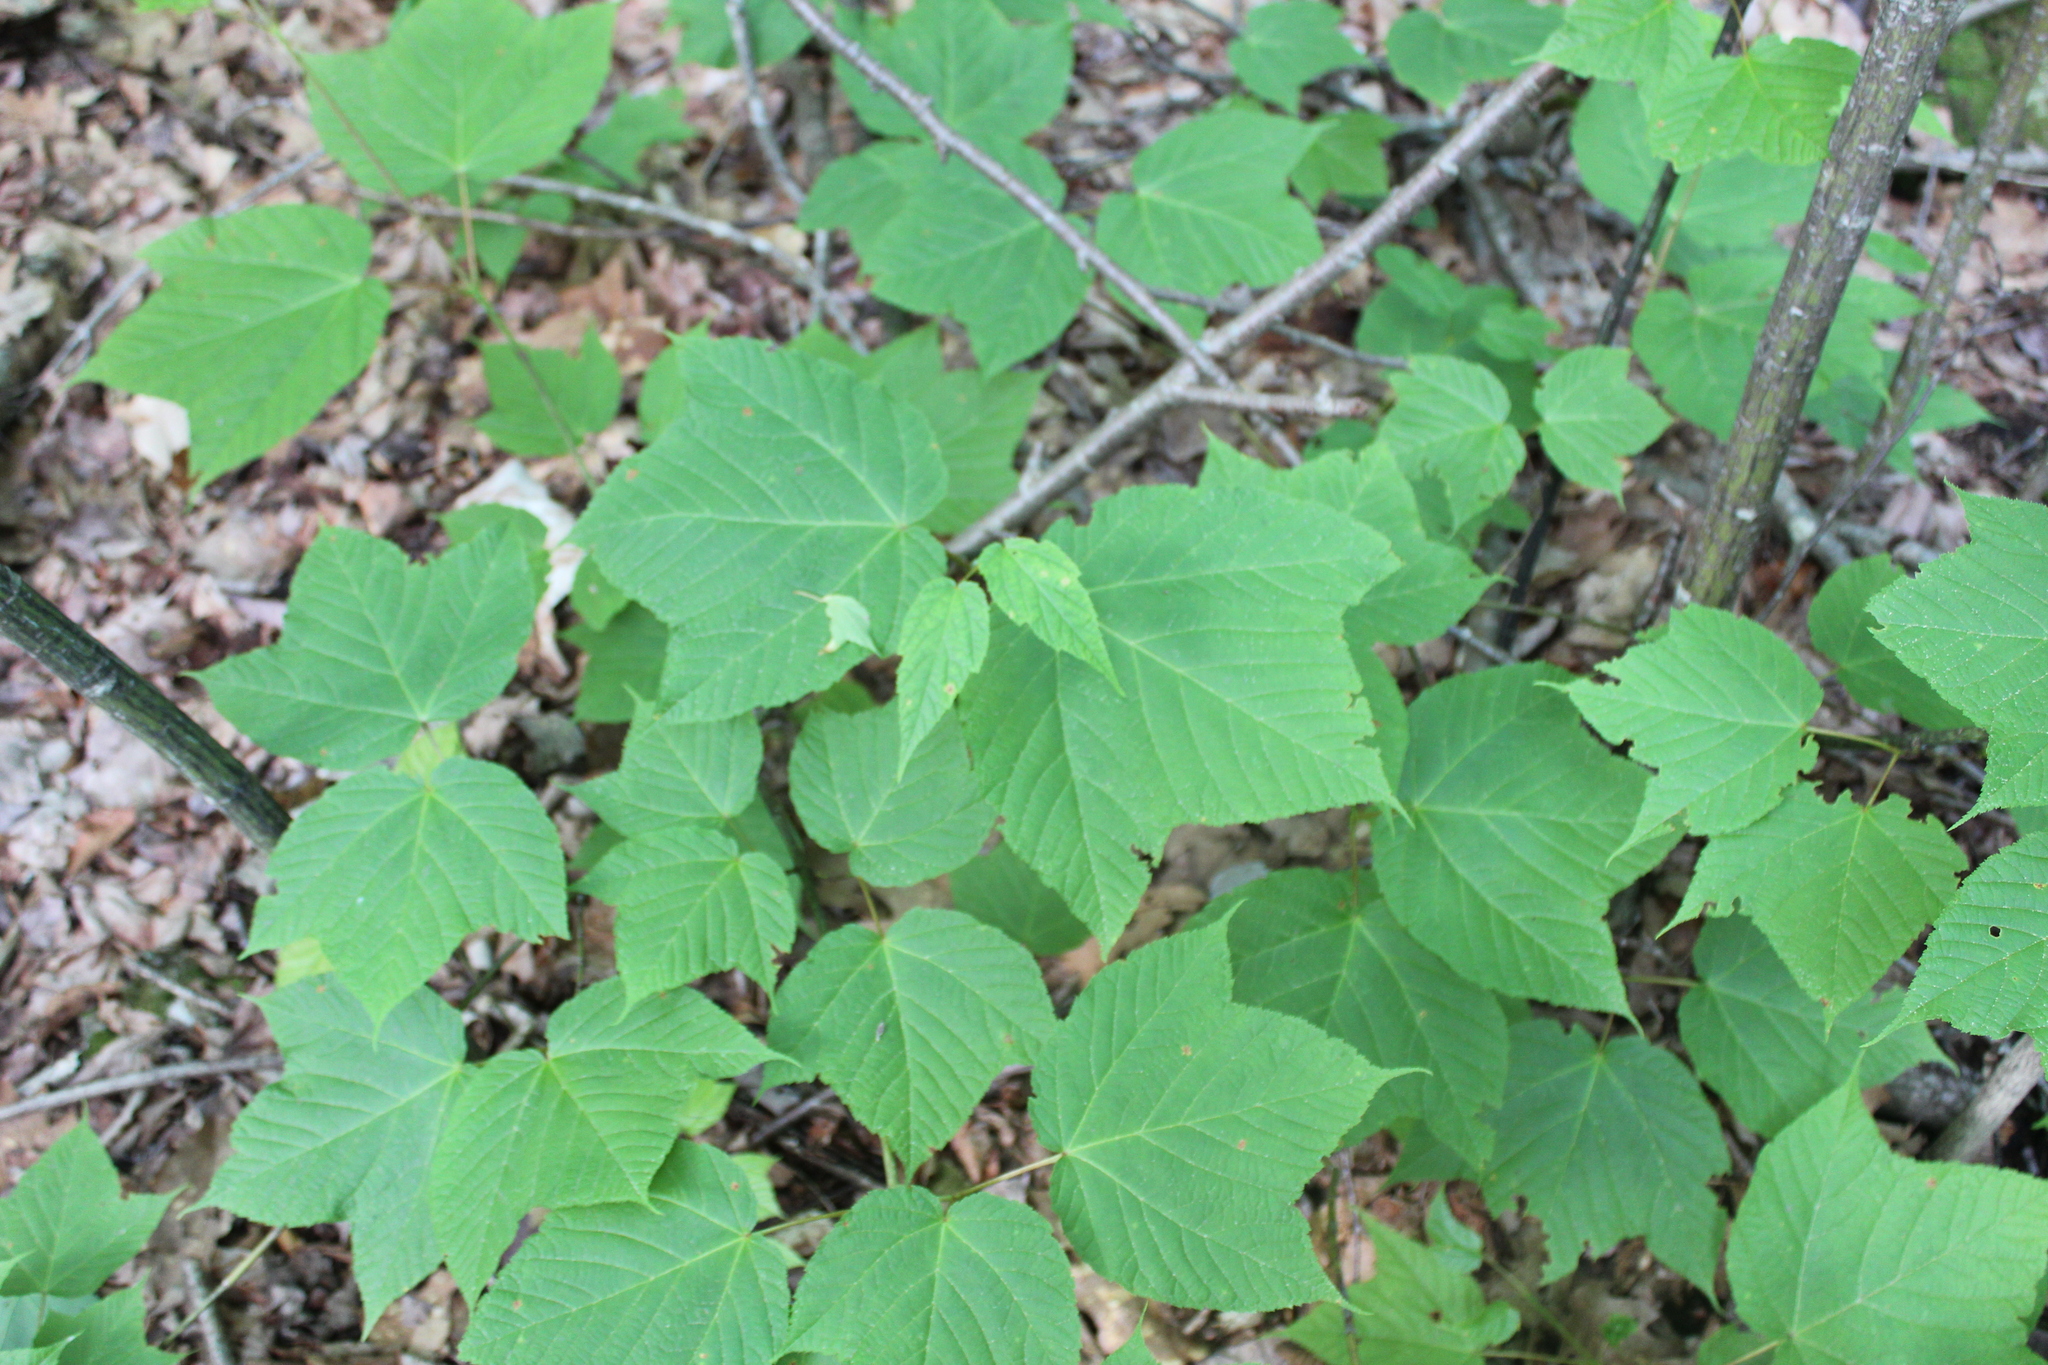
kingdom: Plantae
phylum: Tracheophyta
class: Magnoliopsida
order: Sapindales
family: Sapindaceae
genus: Acer
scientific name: Acer pensylvanicum
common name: Moosewood
